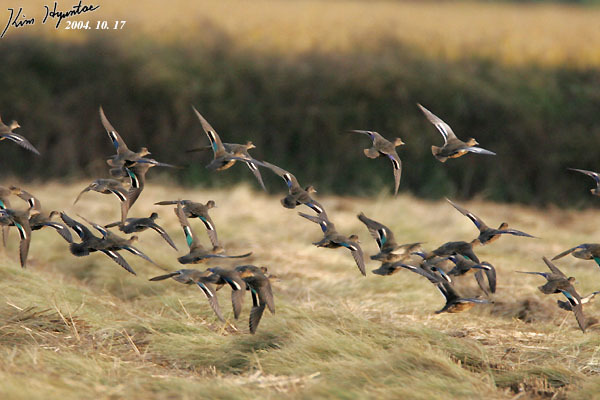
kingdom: Animalia
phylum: Chordata
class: Aves
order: Anseriformes
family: Anatidae
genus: Anas
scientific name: Anas crecca
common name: Eurasian teal
